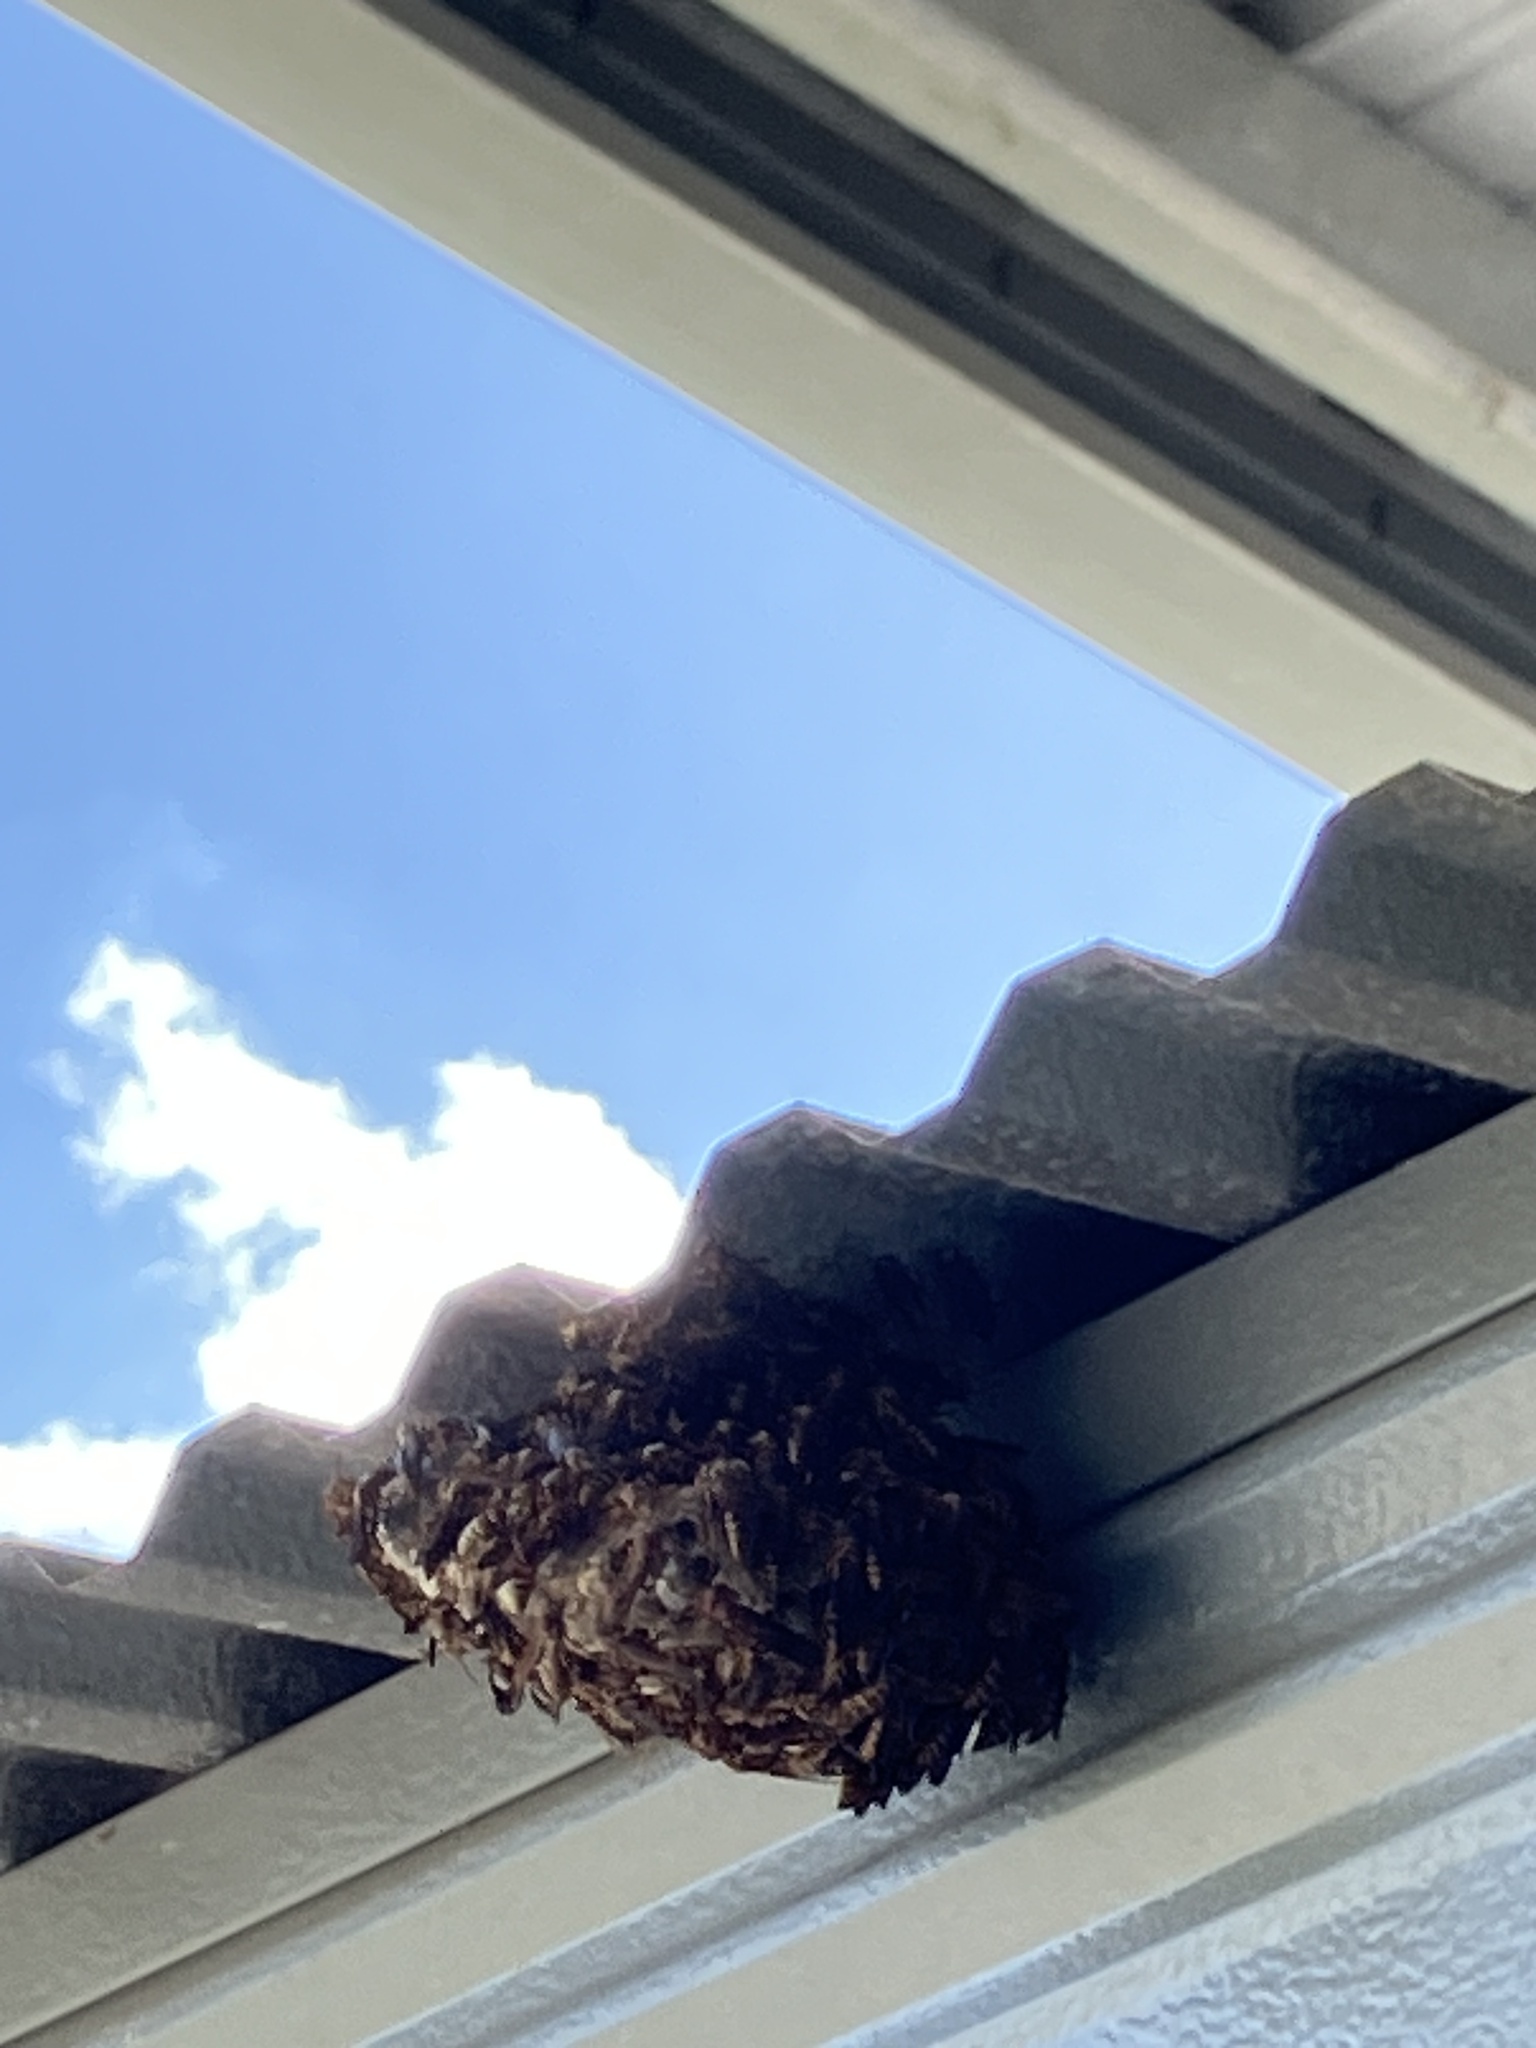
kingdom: Animalia
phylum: Arthropoda
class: Insecta
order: Hymenoptera
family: Eumenidae
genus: Polistes
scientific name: Polistes exclamans
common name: Paper wasp
